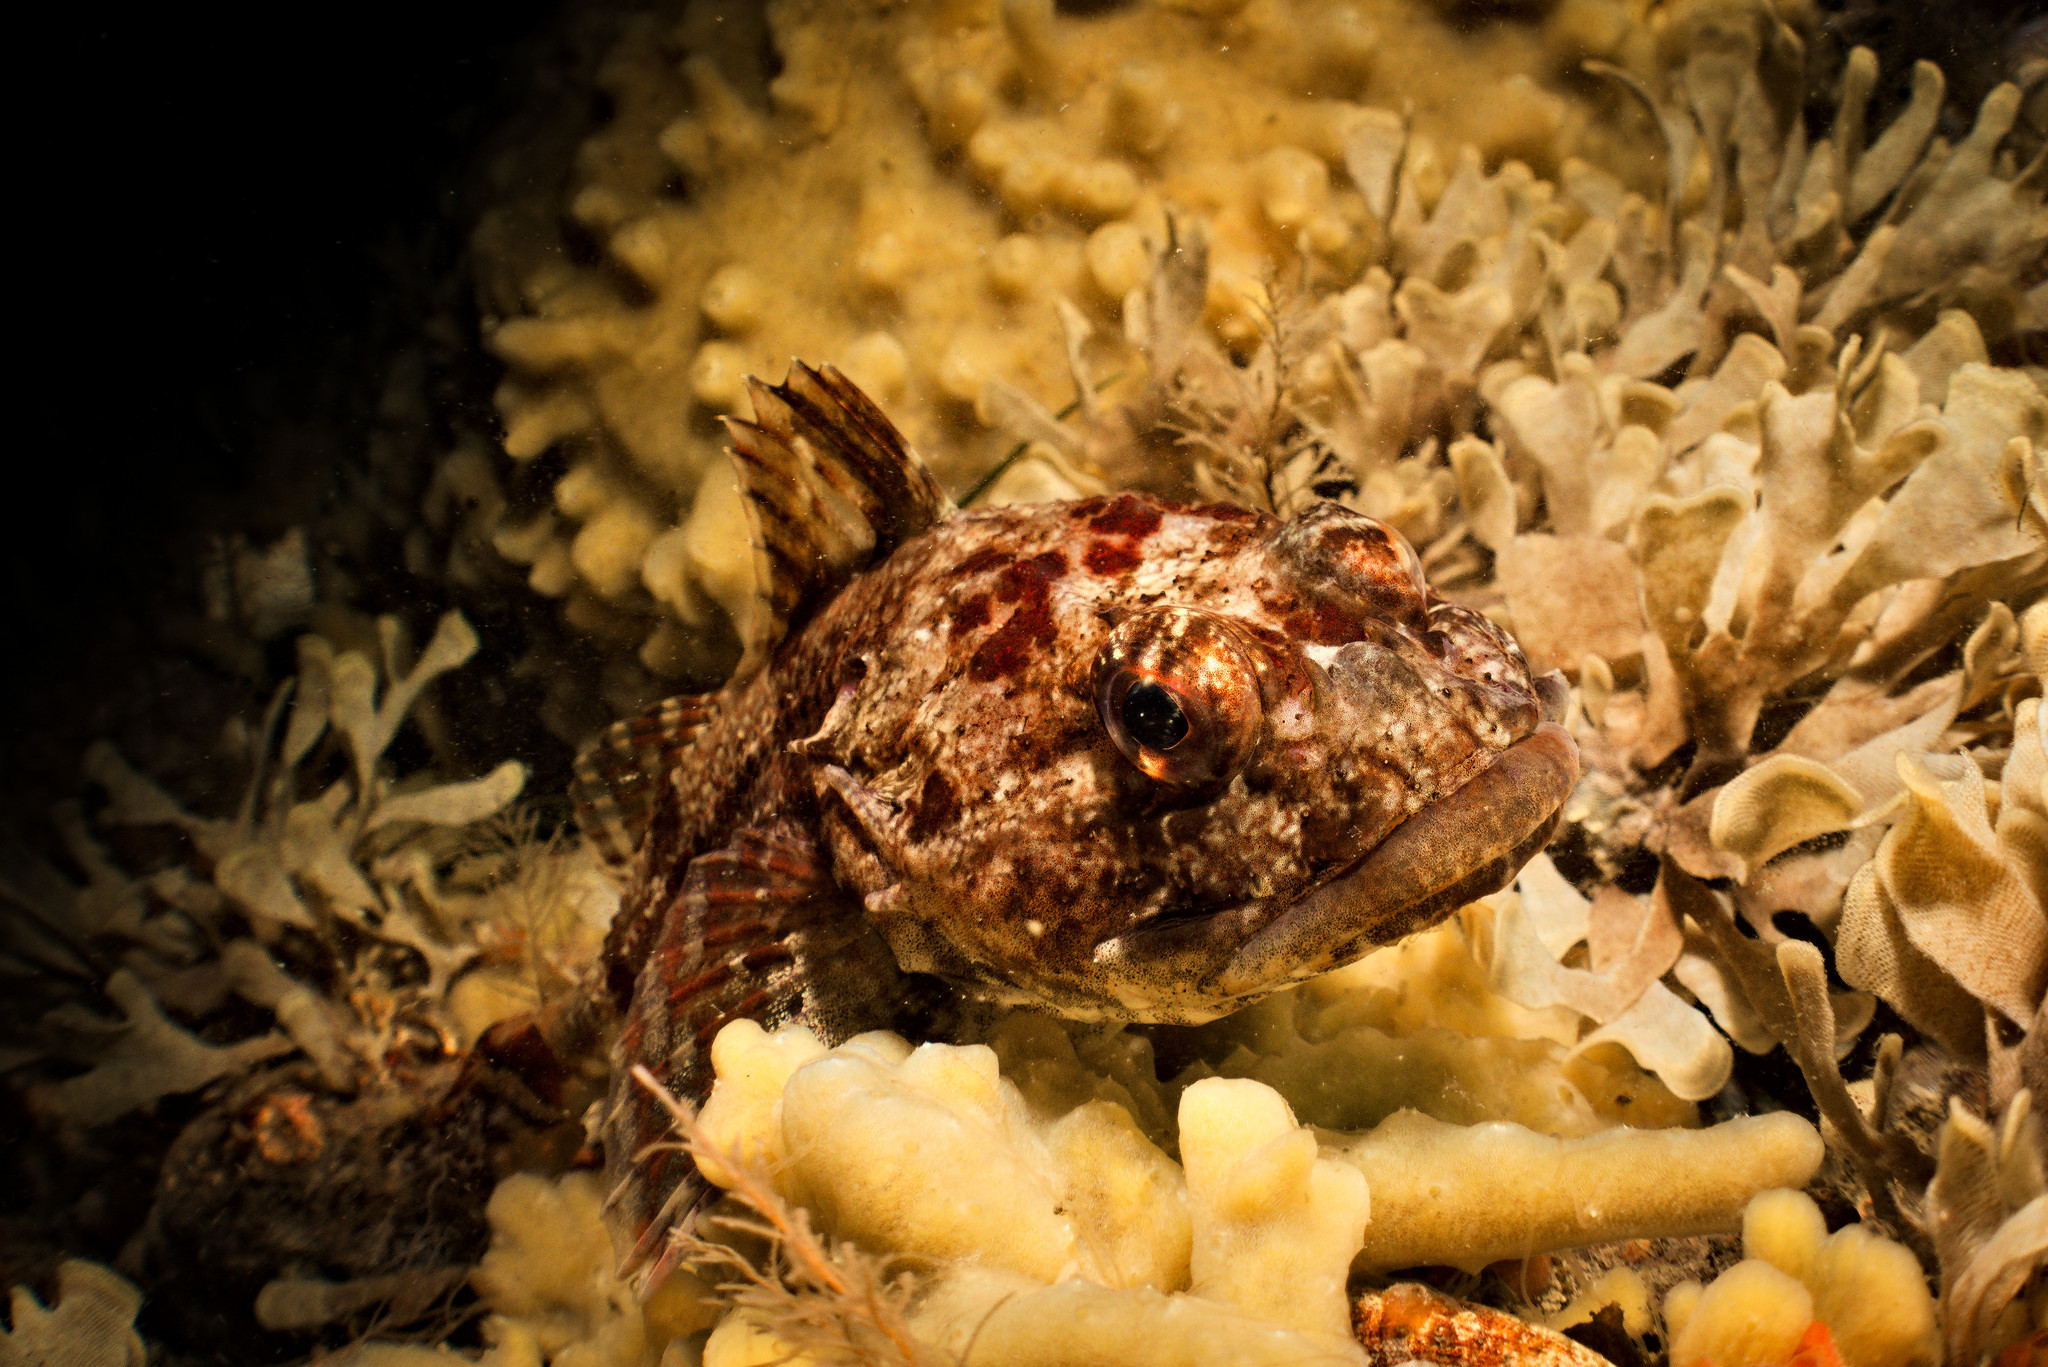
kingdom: Animalia
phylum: Chordata
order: Scorpaeniformes
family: Cottidae
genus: Myoxocephalus
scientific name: Myoxocephalus scorpius
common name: Shorthorn sculpin
